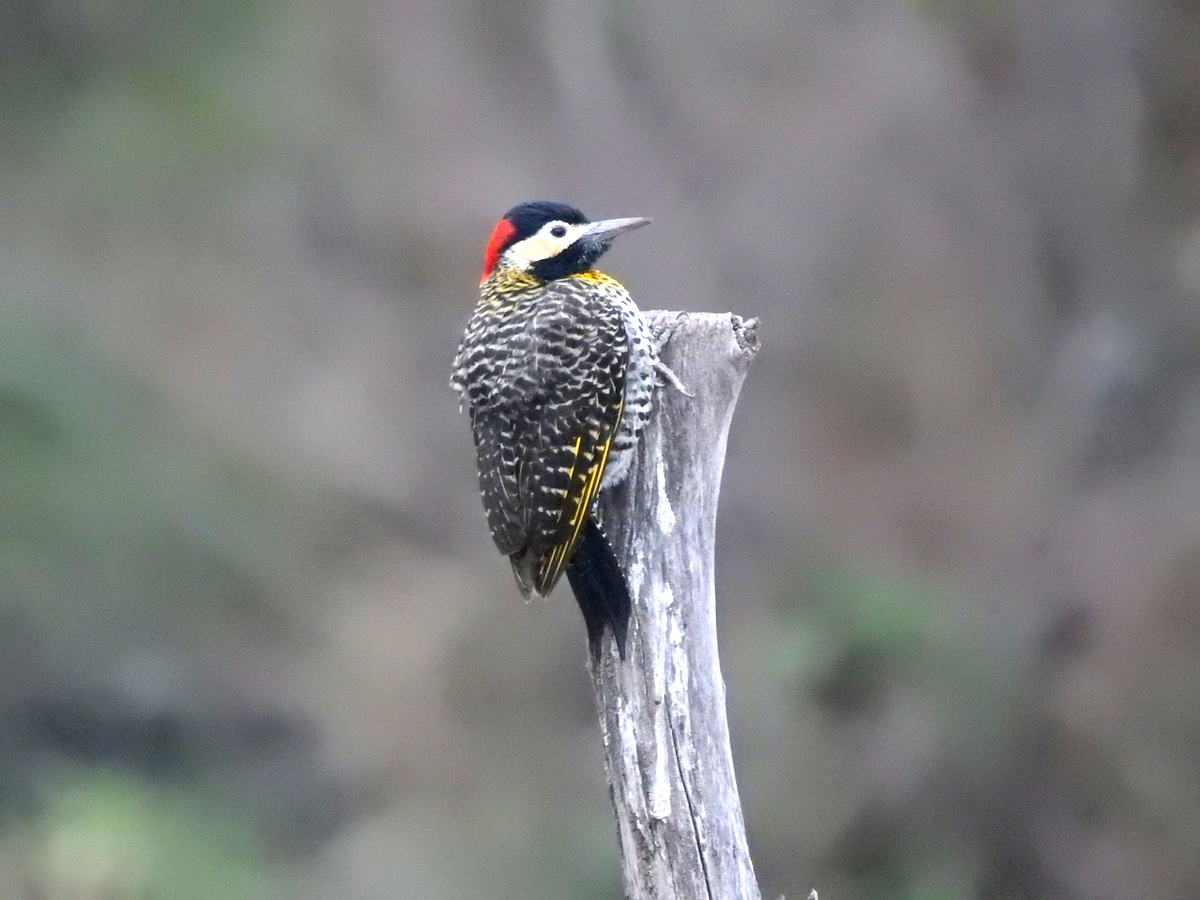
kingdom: Animalia
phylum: Chordata
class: Aves
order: Piciformes
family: Picidae
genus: Colaptes
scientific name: Colaptes melanochloros
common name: Green-barred woodpecker
